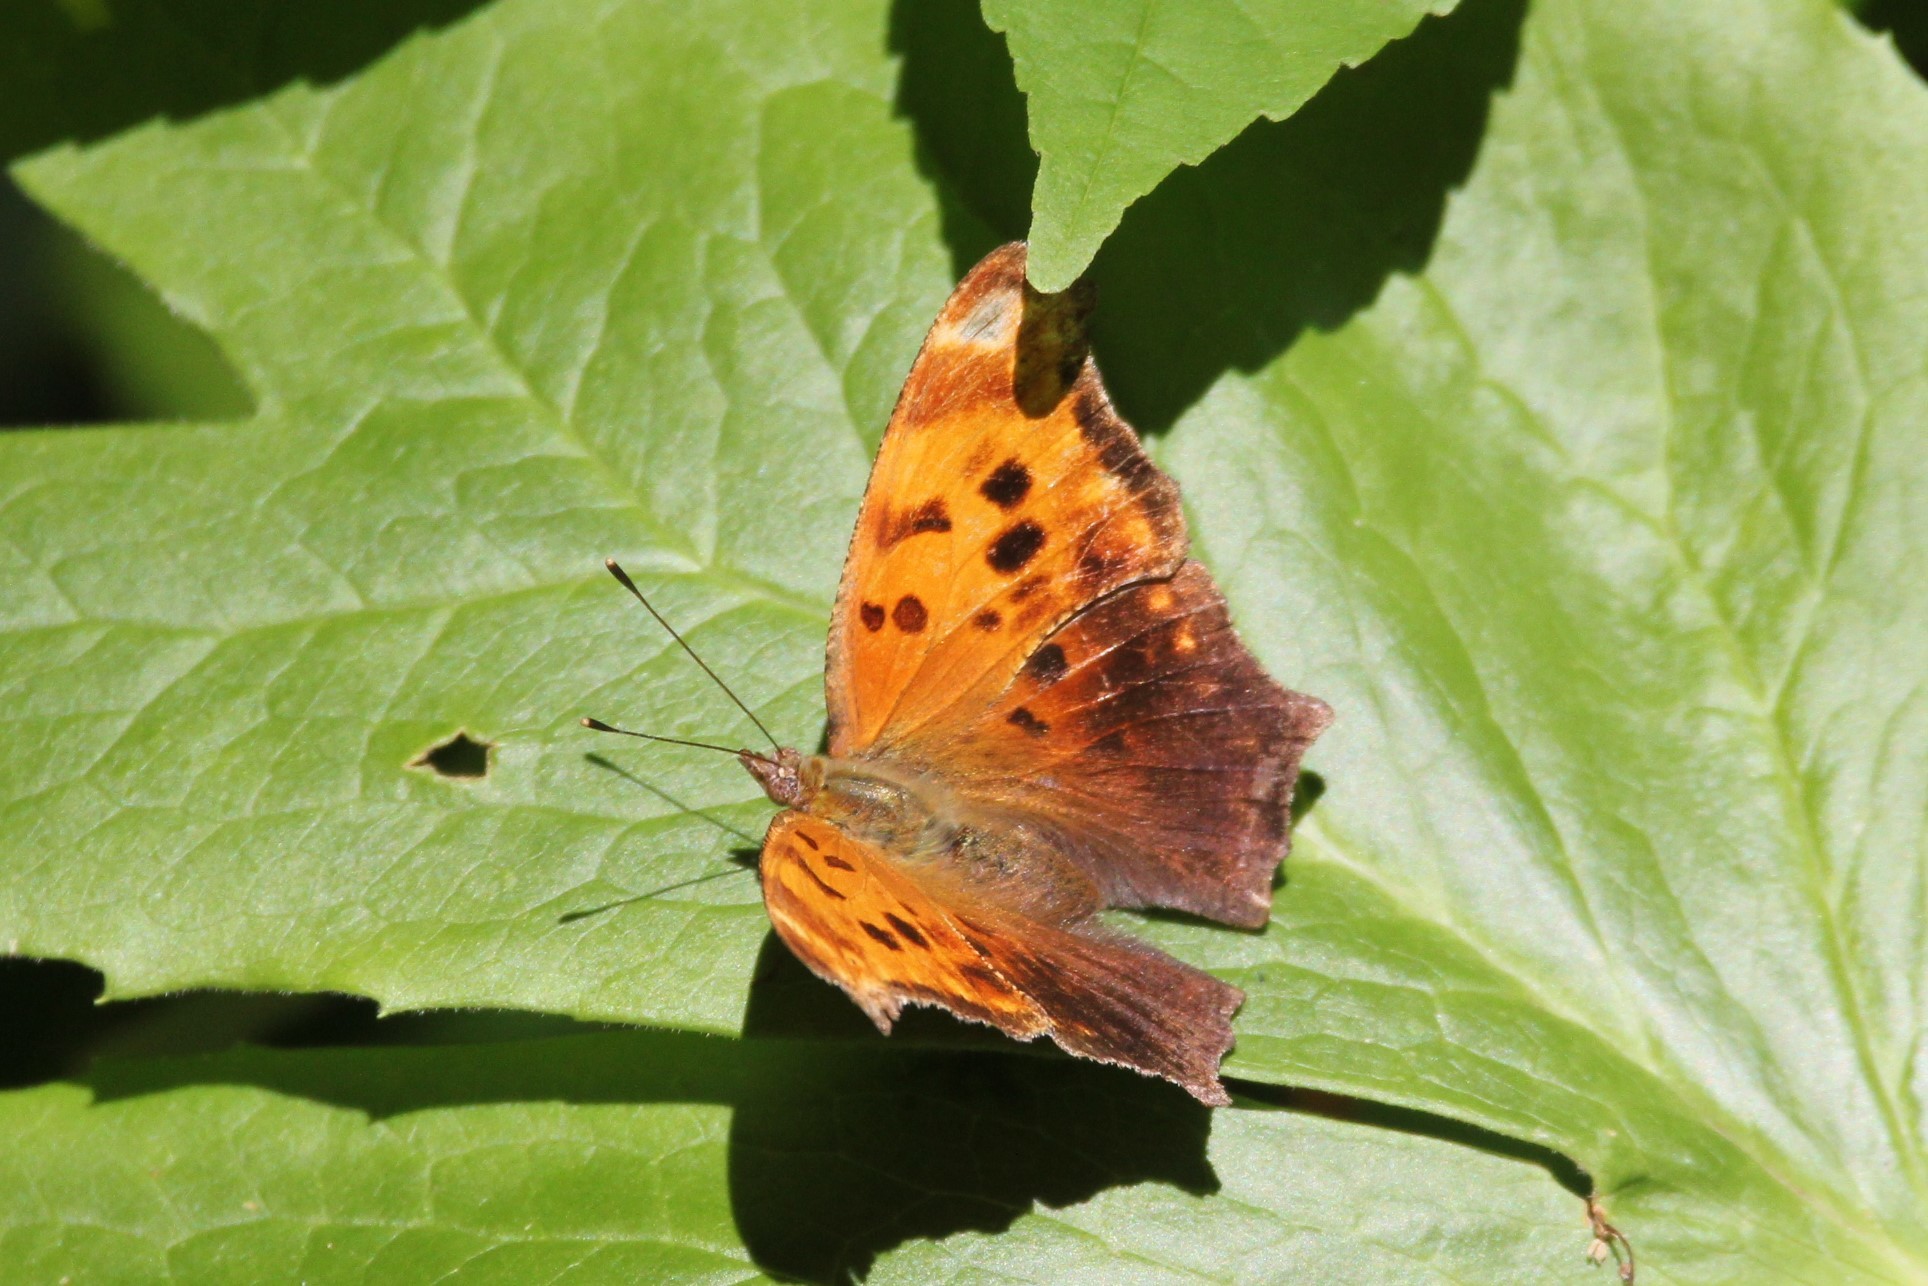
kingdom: Animalia
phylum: Arthropoda
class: Insecta
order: Lepidoptera
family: Nymphalidae
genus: Polygonia
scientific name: Polygonia comma
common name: Eastern comma
